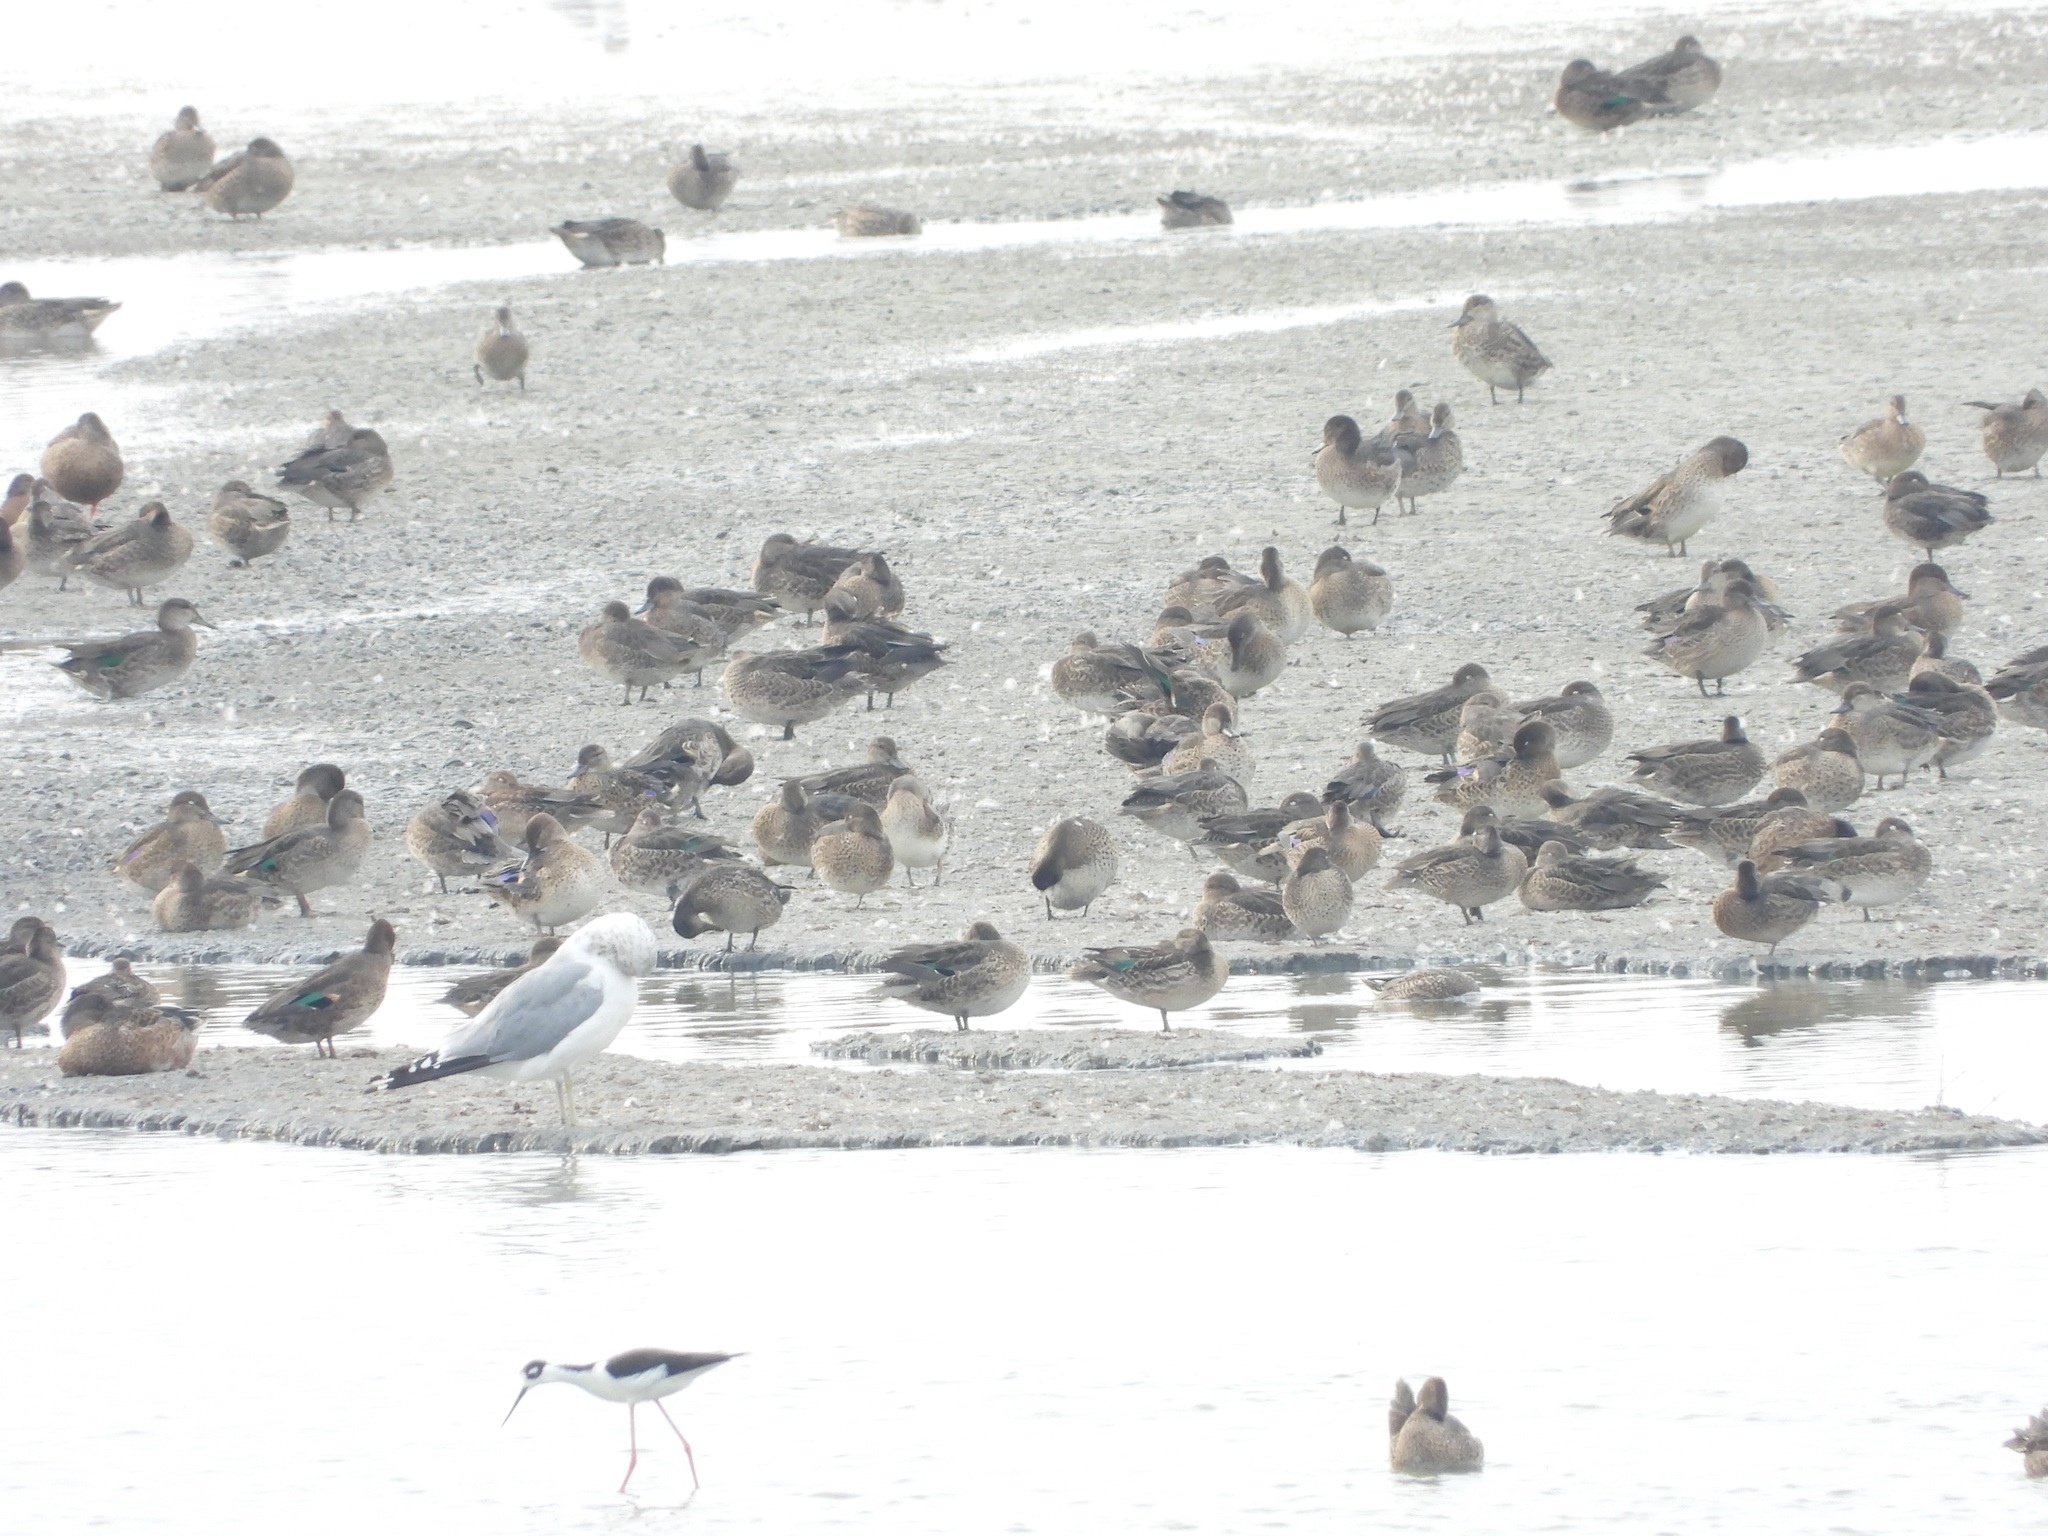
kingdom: Animalia
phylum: Chordata
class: Aves
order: Charadriiformes
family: Laridae
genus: Larus
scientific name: Larus delawarensis
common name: Ring-billed gull
